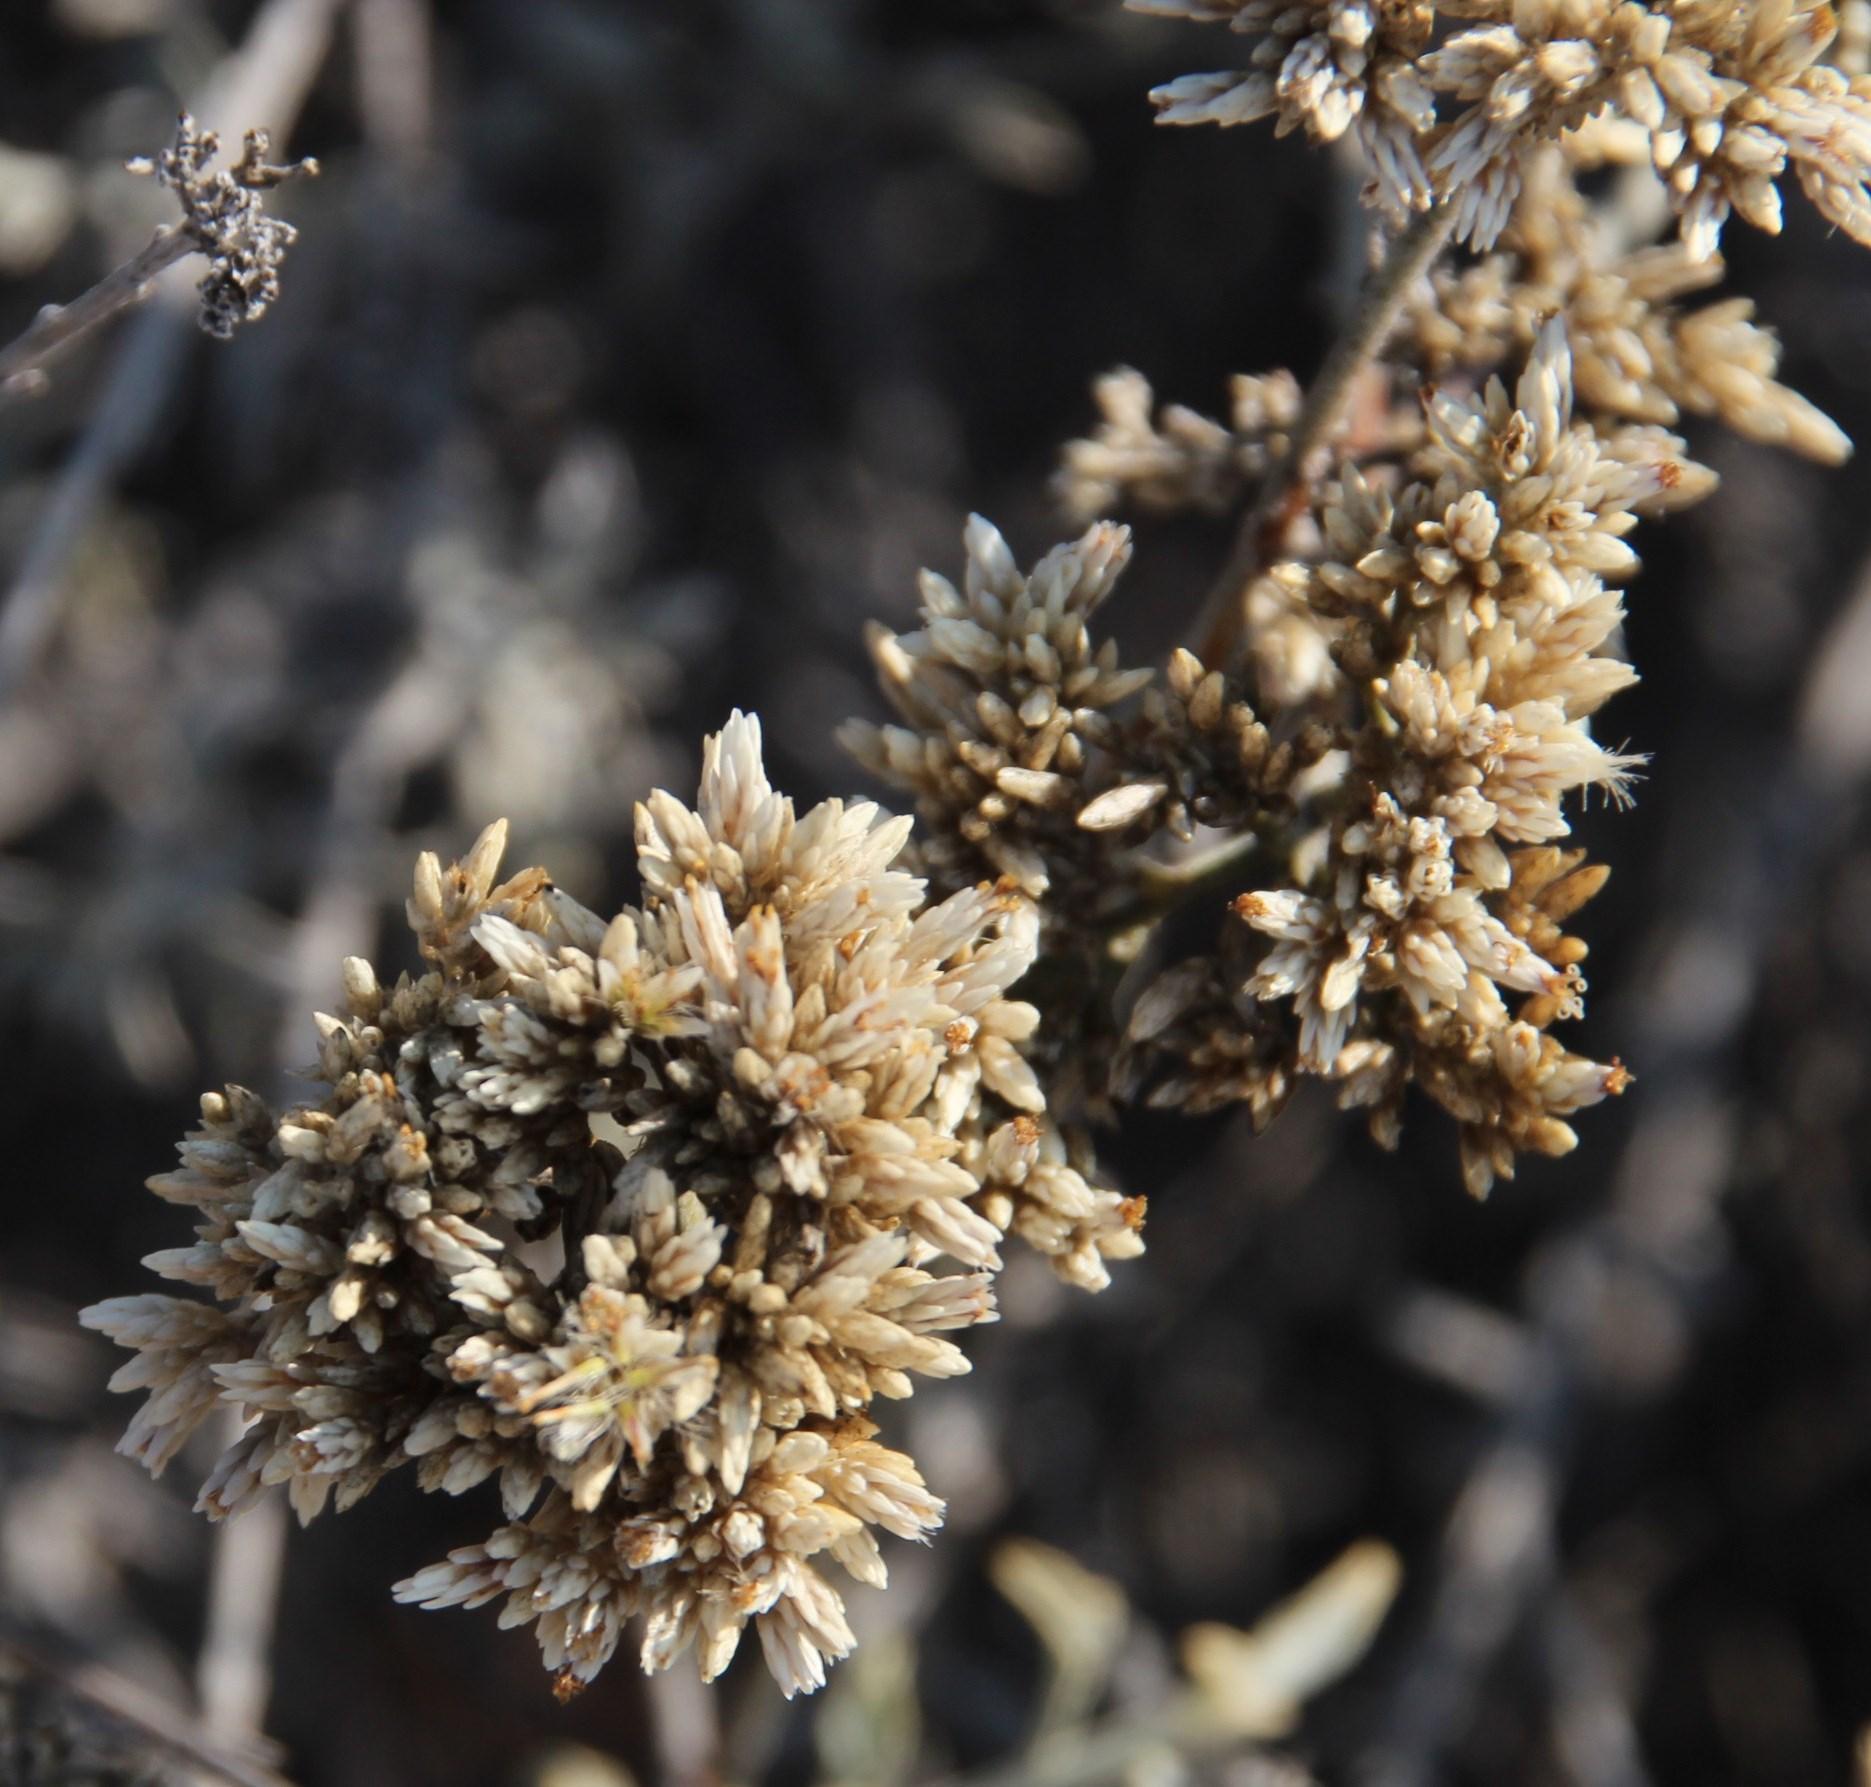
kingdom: Plantae
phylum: Tracheophyta
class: Magnoliopsida
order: Asterales
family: Asteraceae
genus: Helichrysum
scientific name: Helichrysum zeyheri
